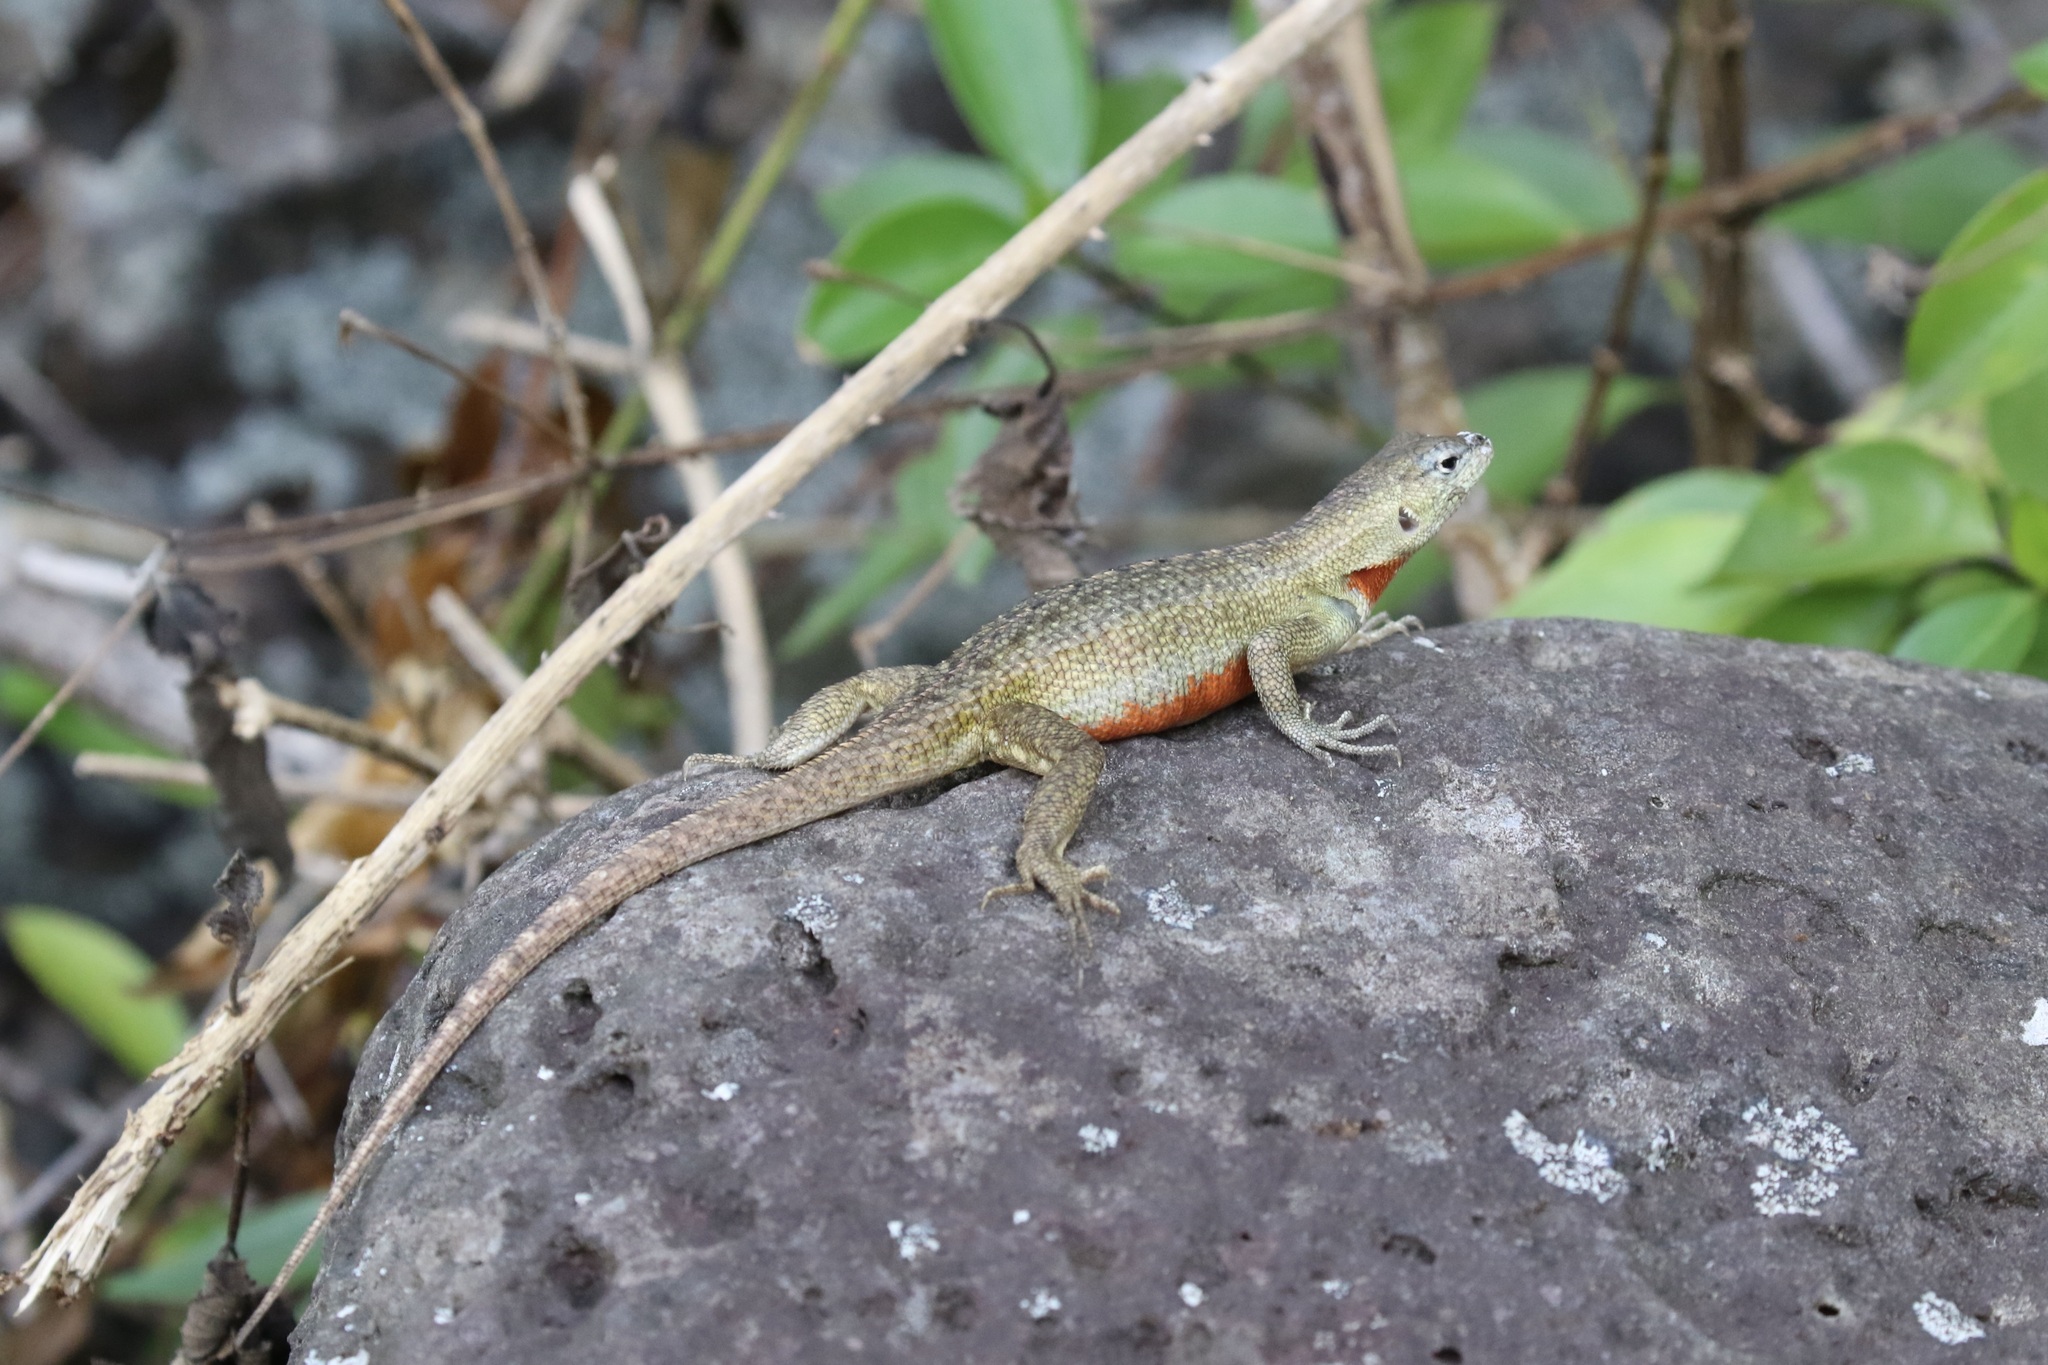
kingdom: Animalia
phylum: Chordata
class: Squamata
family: Tropiduridae
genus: Microlophus
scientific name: Microlophus bivittatus
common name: San cristobal lava lizard
